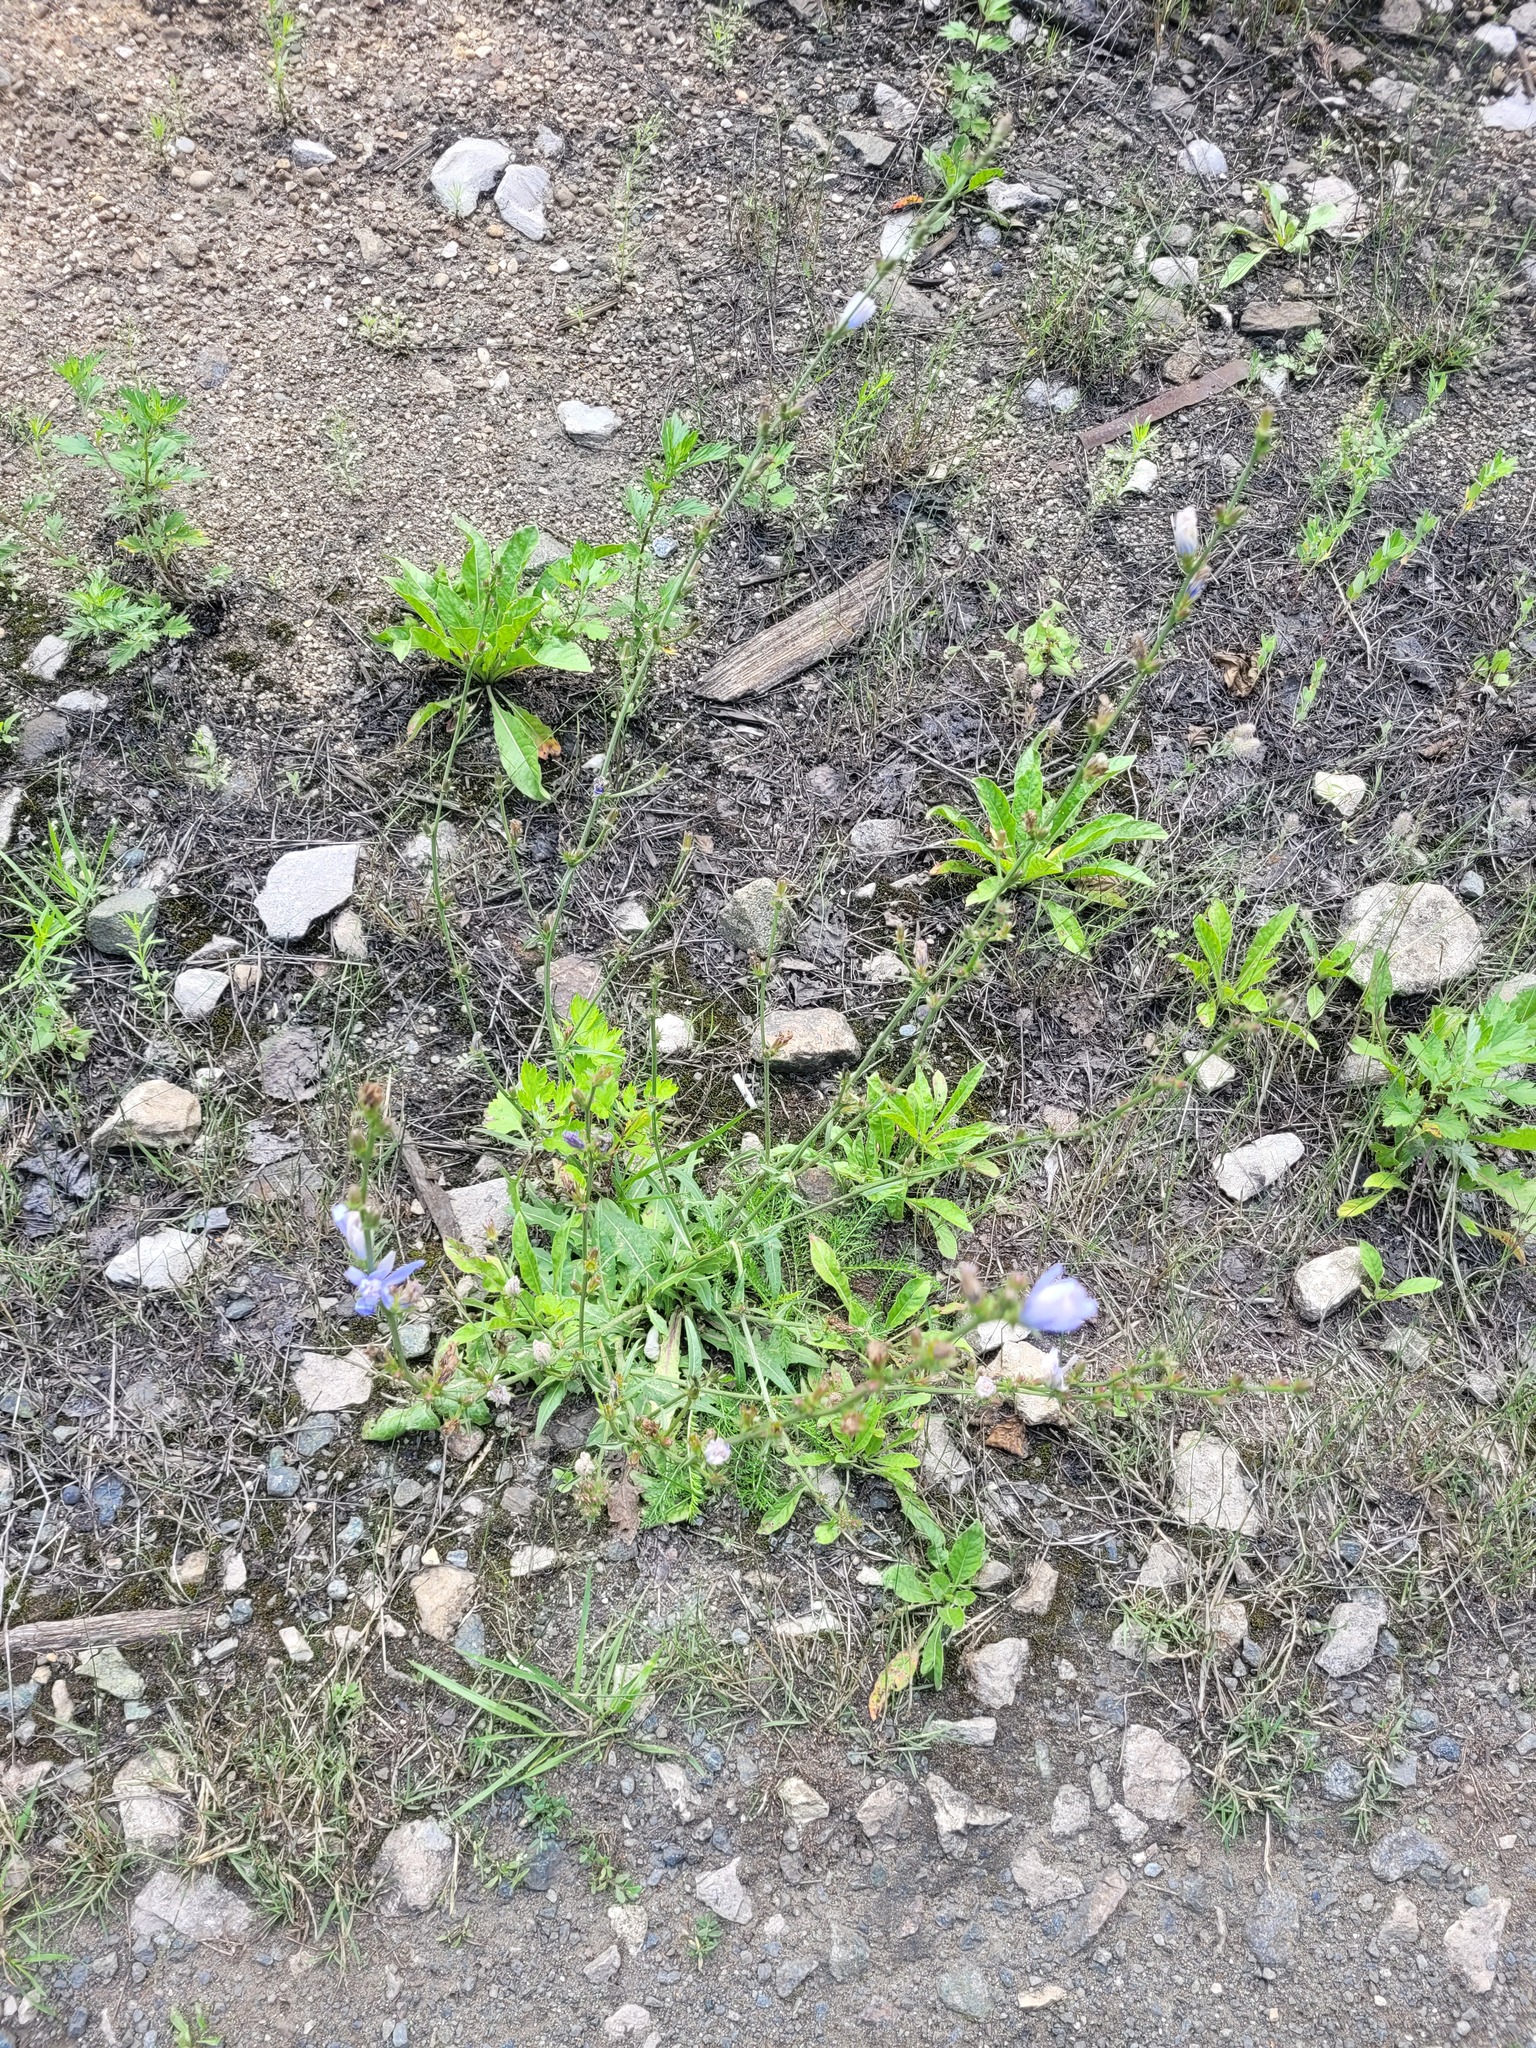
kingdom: Plantae
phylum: Tracheophyta
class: Magnoliopsida
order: Asterales
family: Asteraceae
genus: Cichorium
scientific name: Cichorium intybus
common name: Chicory
